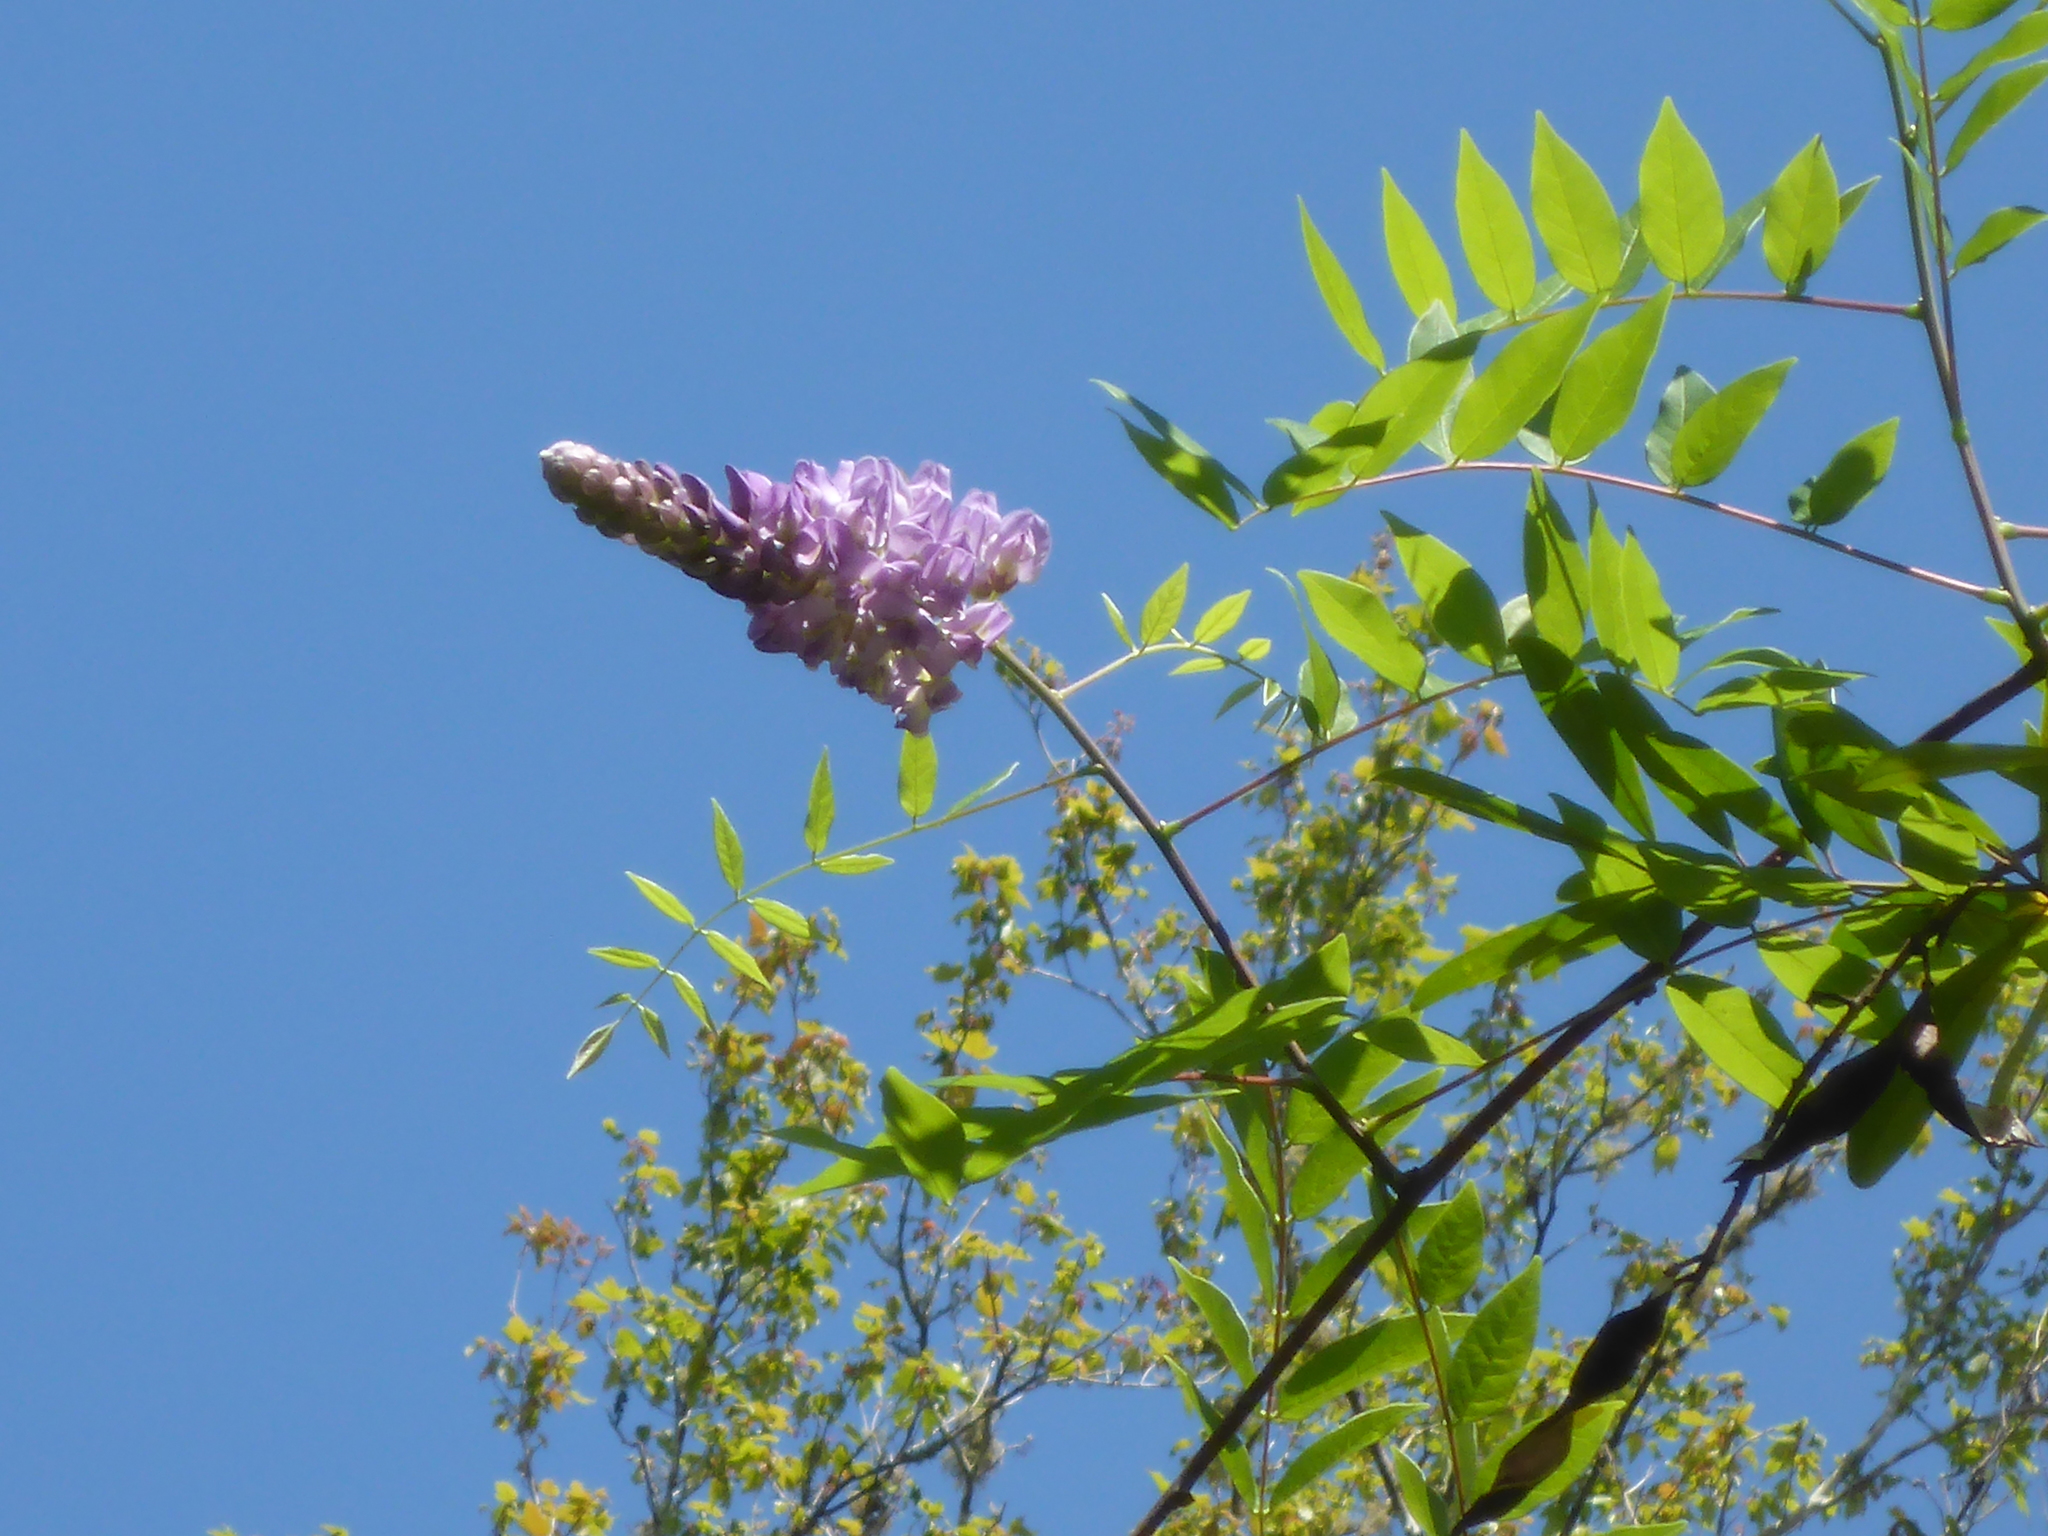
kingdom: Plantae
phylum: Tracheophyta
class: Magnoliopsida
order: Fabales
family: Fabaceae
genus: Wisteria
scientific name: Wisteria frutescens
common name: American wisteria
